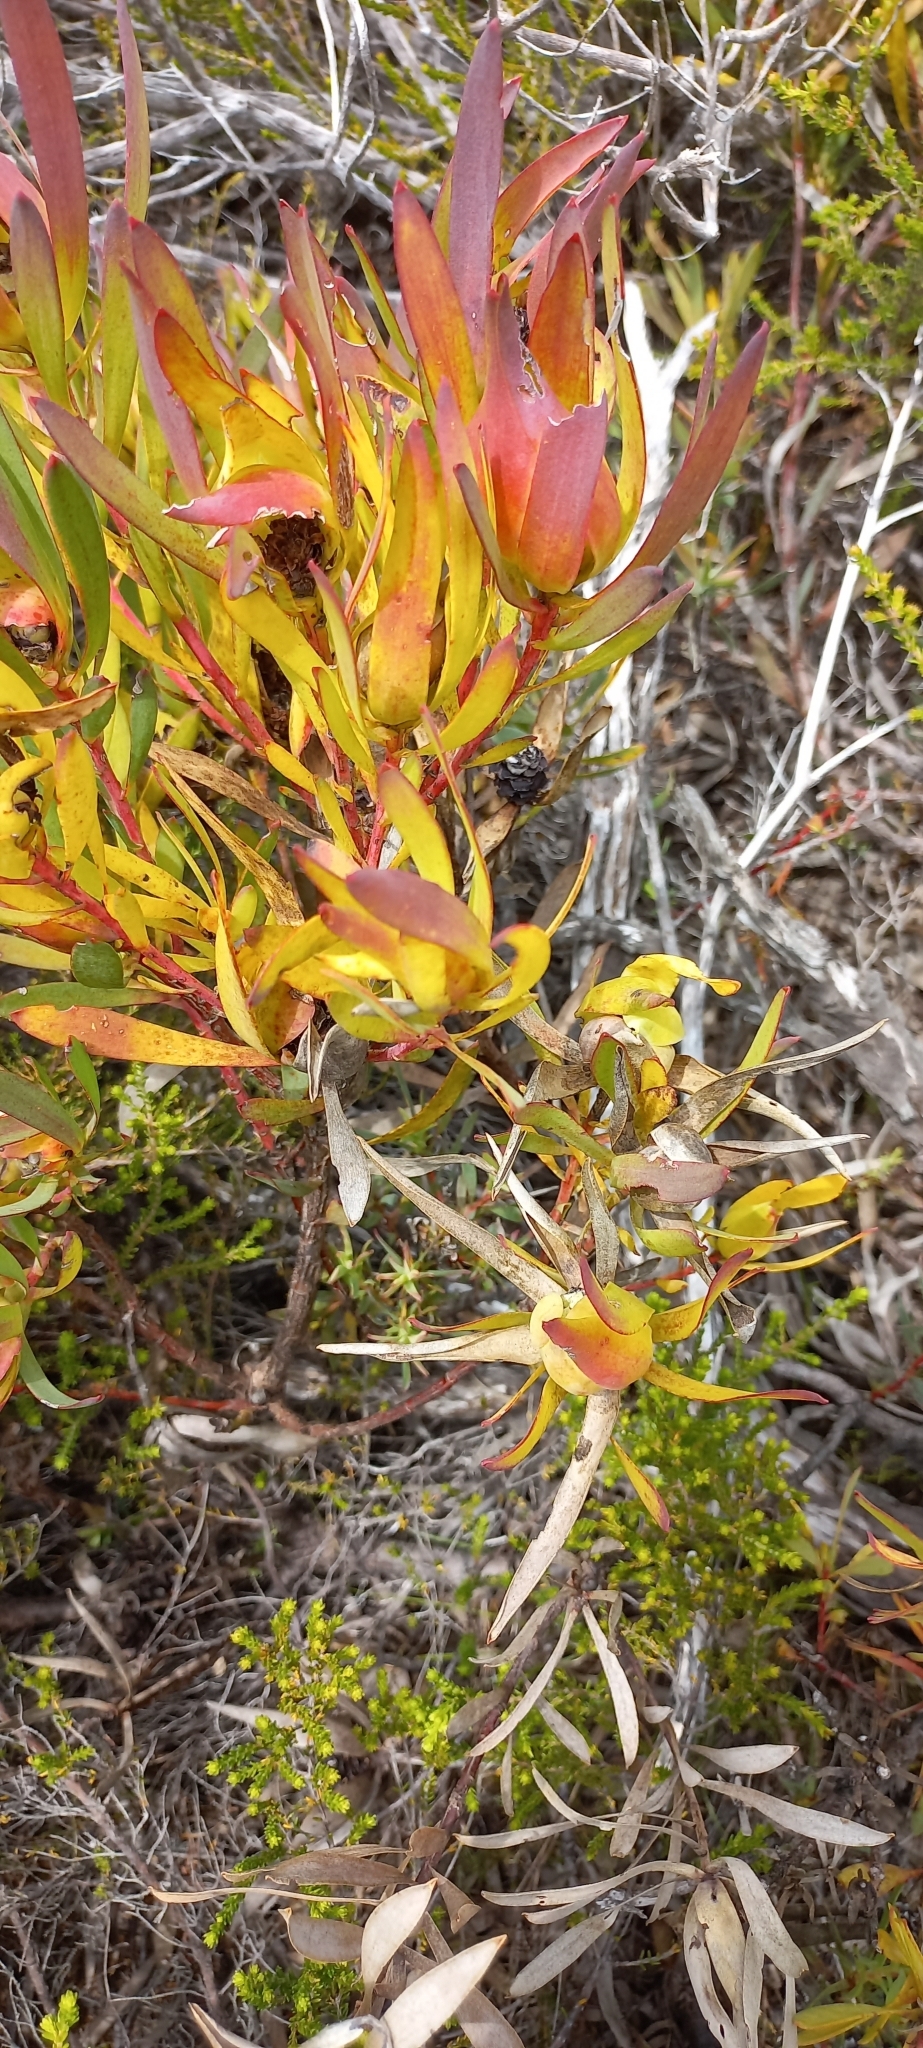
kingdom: Plantae
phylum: Tracheophyta
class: Magnoliopsida
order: Proteales
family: Proteaceae
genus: Leucadendron
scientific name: Leucadendron salignum
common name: Common sunshine conebush
